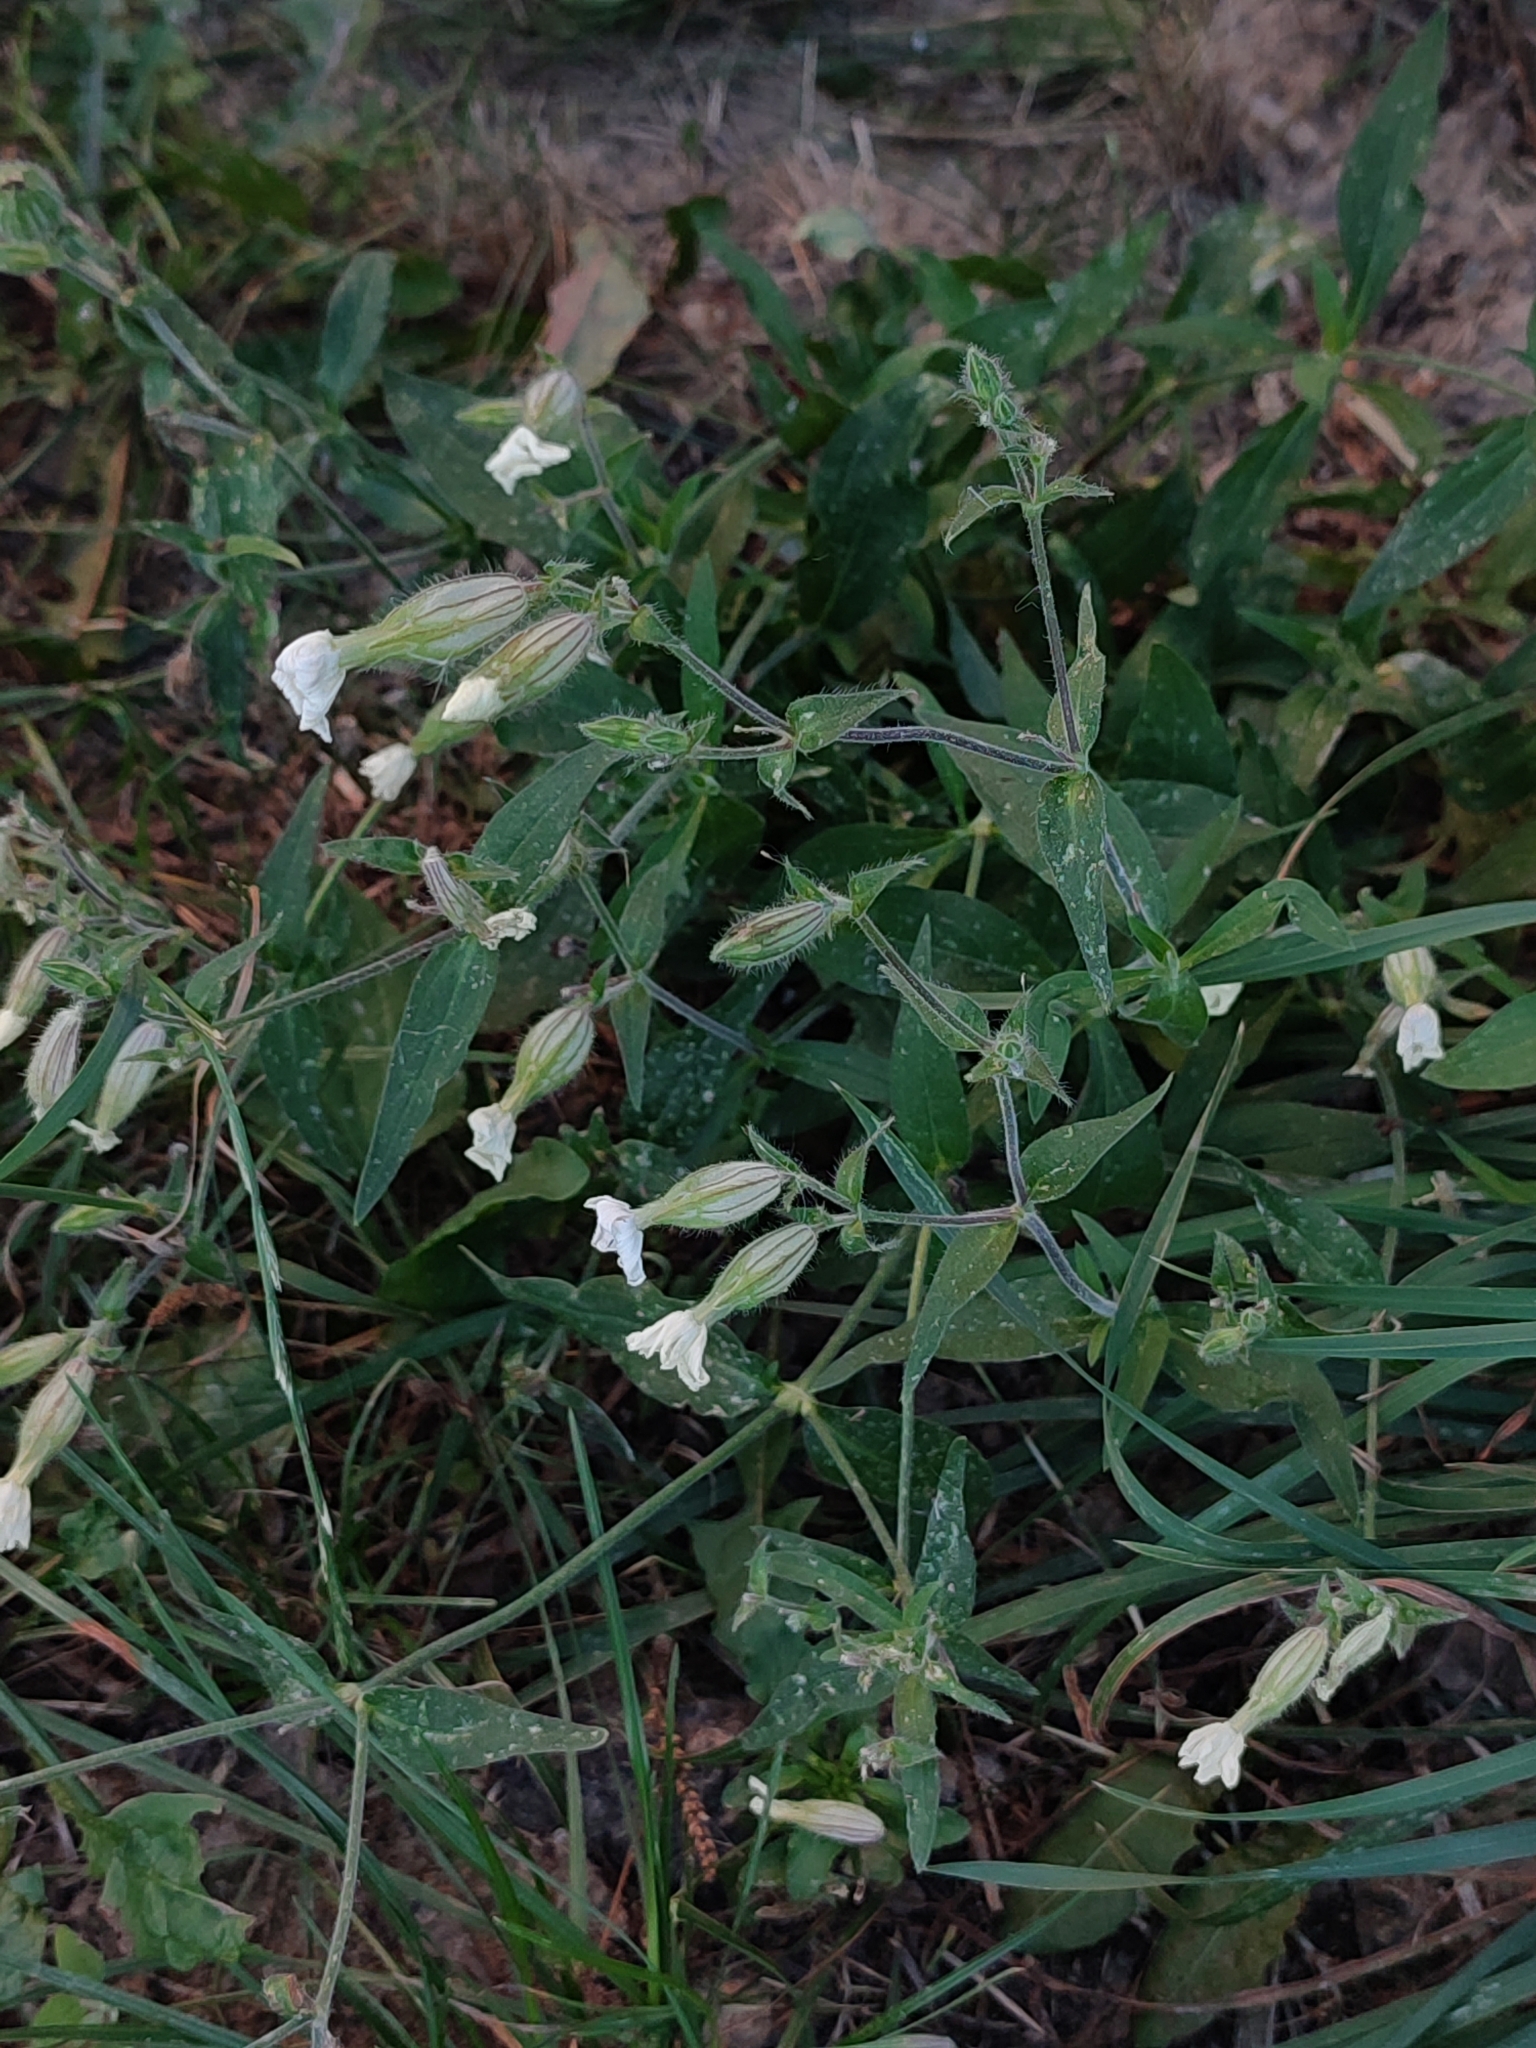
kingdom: Plantae
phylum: Tracheophyta
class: Magnoliopsida
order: Caryophyllales
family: Caryophyllaceae
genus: Silene
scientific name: Silene latifolia
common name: White campion
